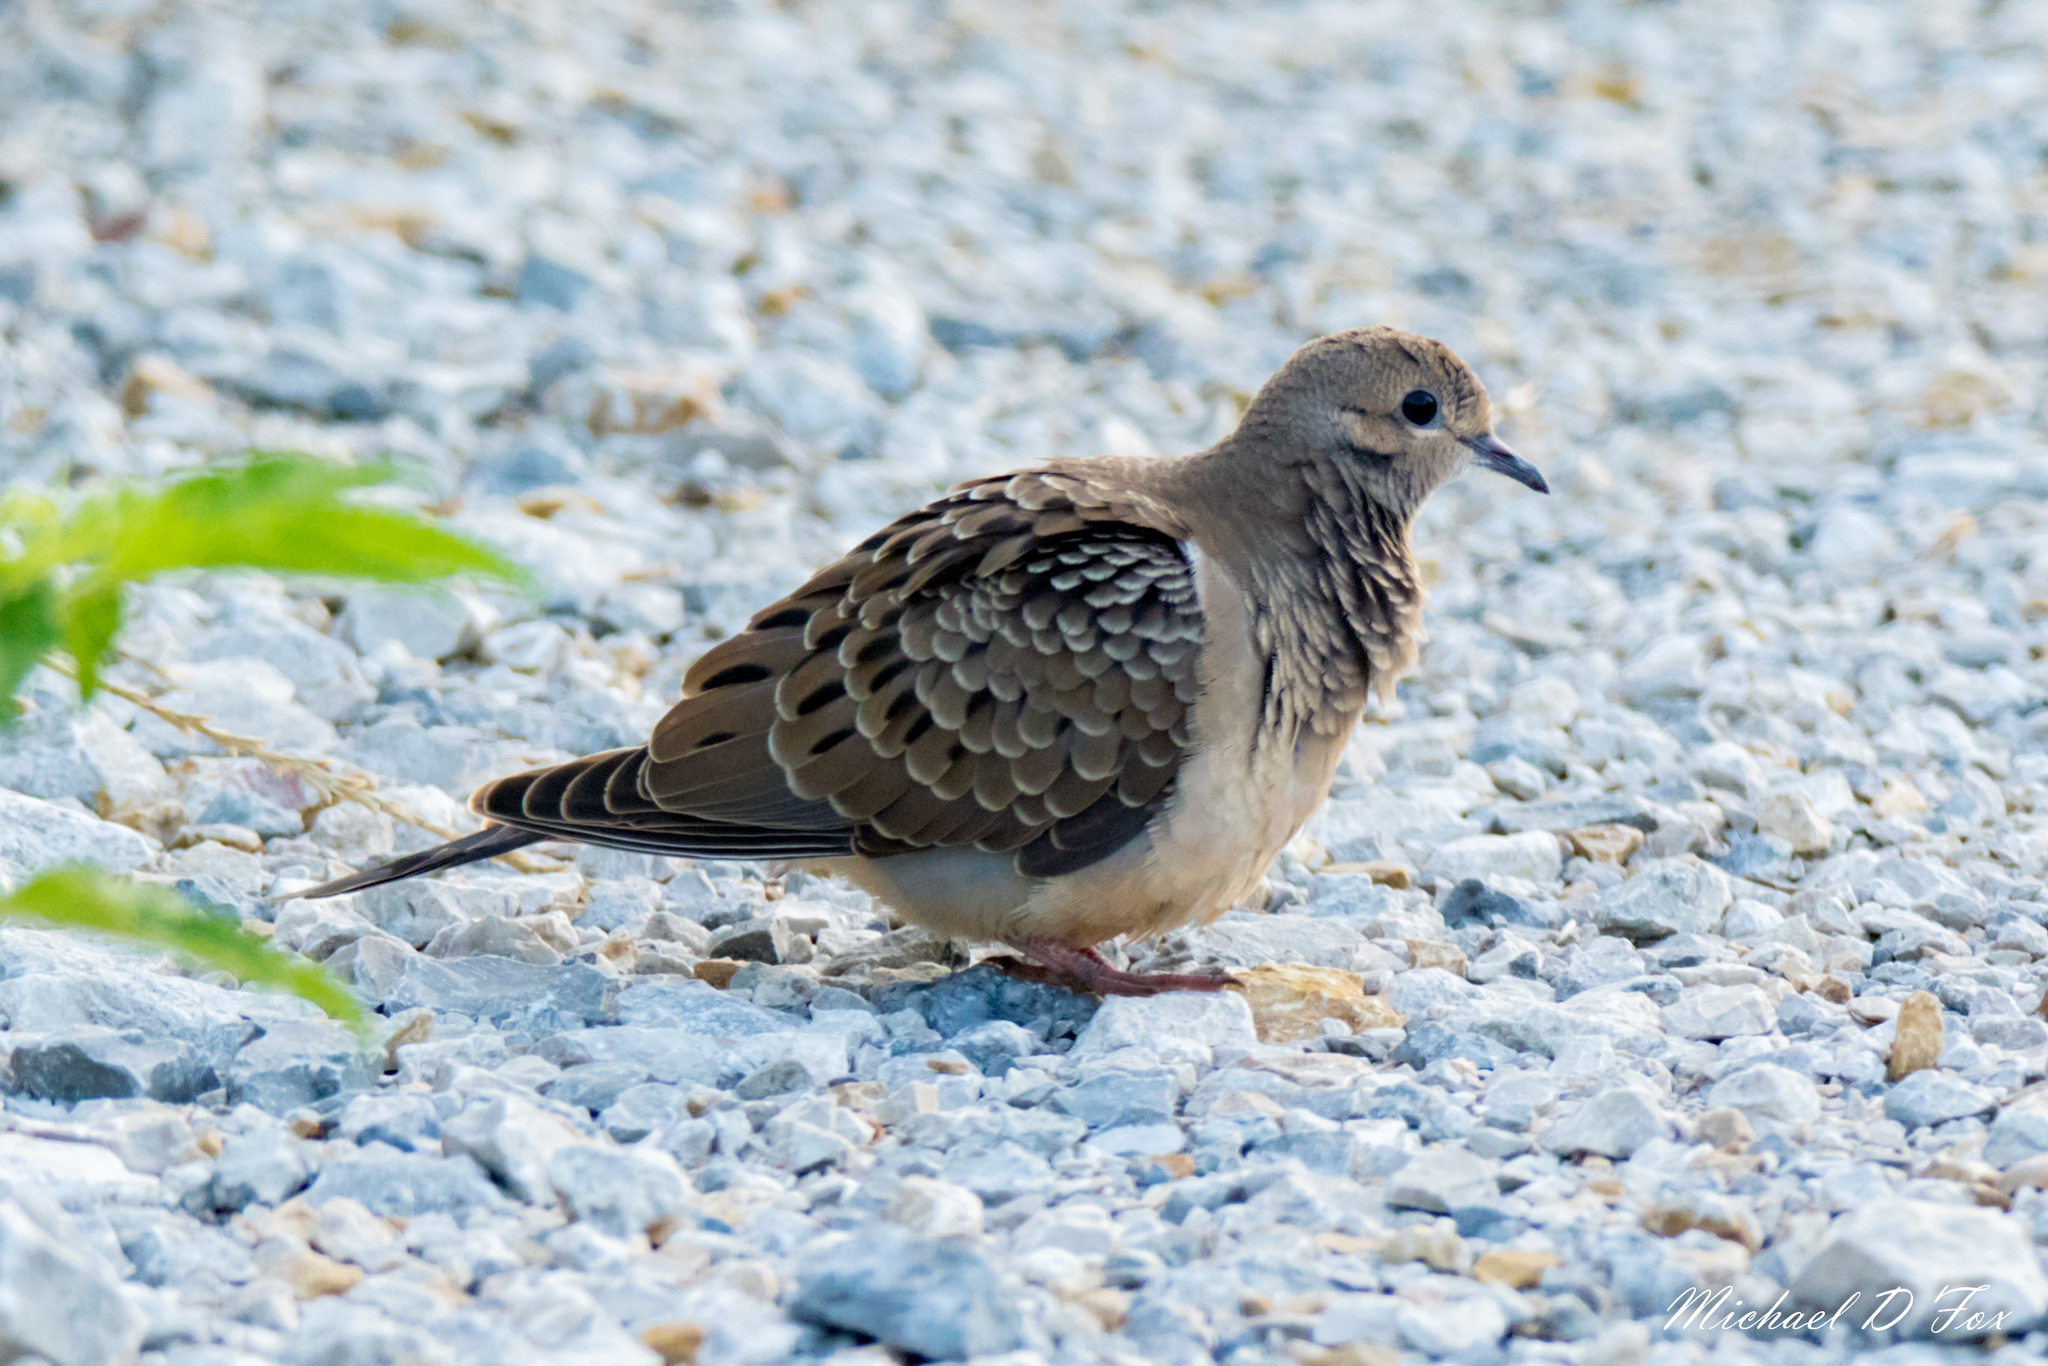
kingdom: Animalia
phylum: Chordata
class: Aves
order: Columbiformes
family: Columbidae
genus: Zenaida
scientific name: Zenaida macroura
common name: Mourning dove
